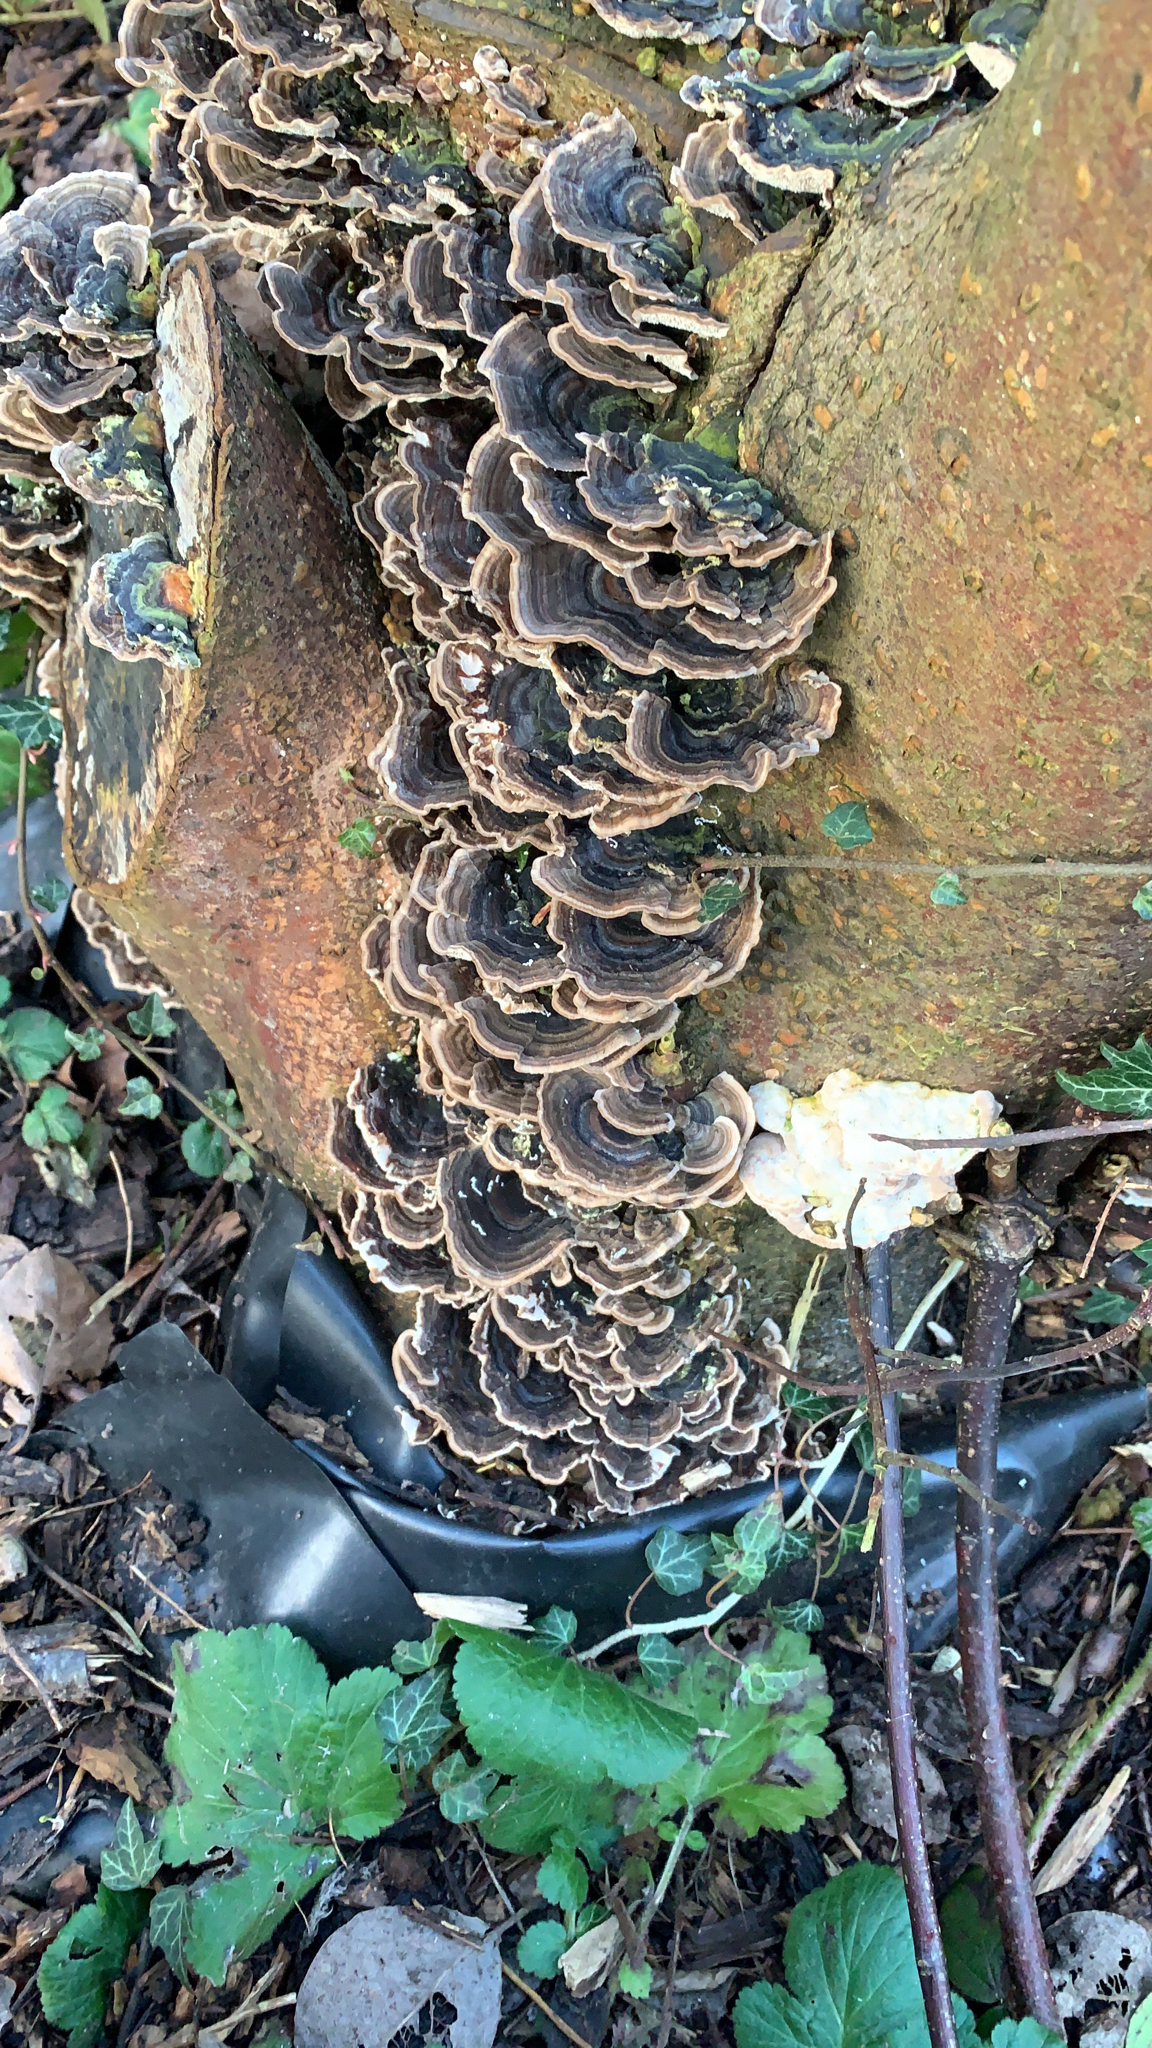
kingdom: Fungi
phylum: Basidiomycota
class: Agaricomycetes
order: Polyporales
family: Polyporaceae
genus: Trametes
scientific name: Trametes versicolor
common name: Turkeytail
